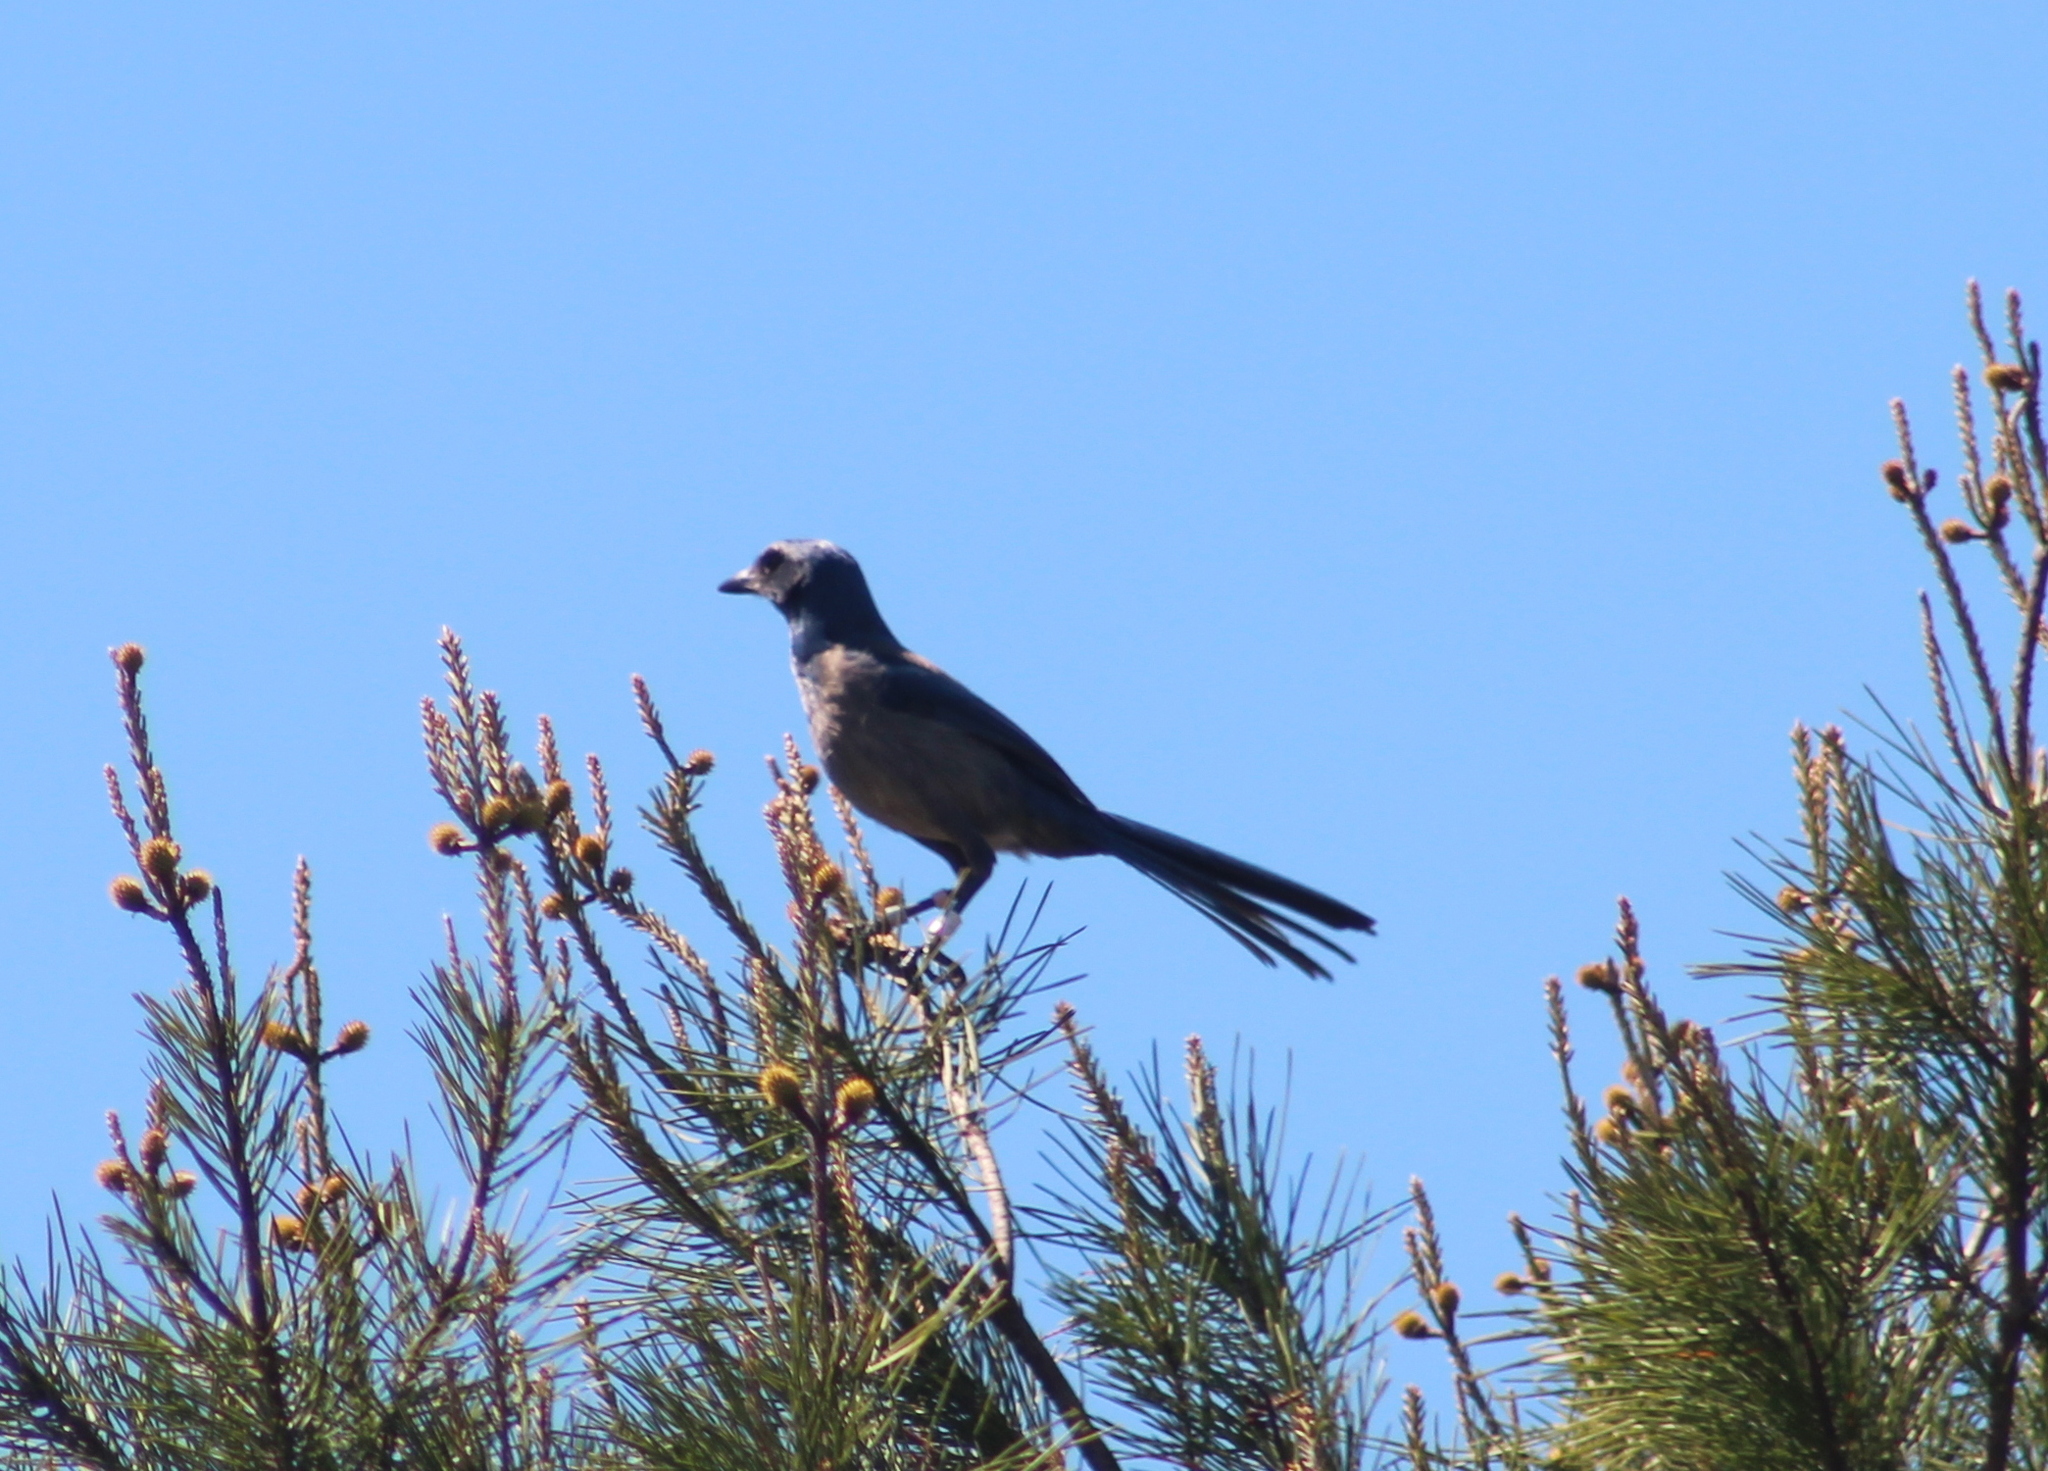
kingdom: Animalia
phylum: Chordata
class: Aves
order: Passeriformes
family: Corvidae
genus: Aphelocoma
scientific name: Aphelocoma coerulescens
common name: Florida scrub jay
